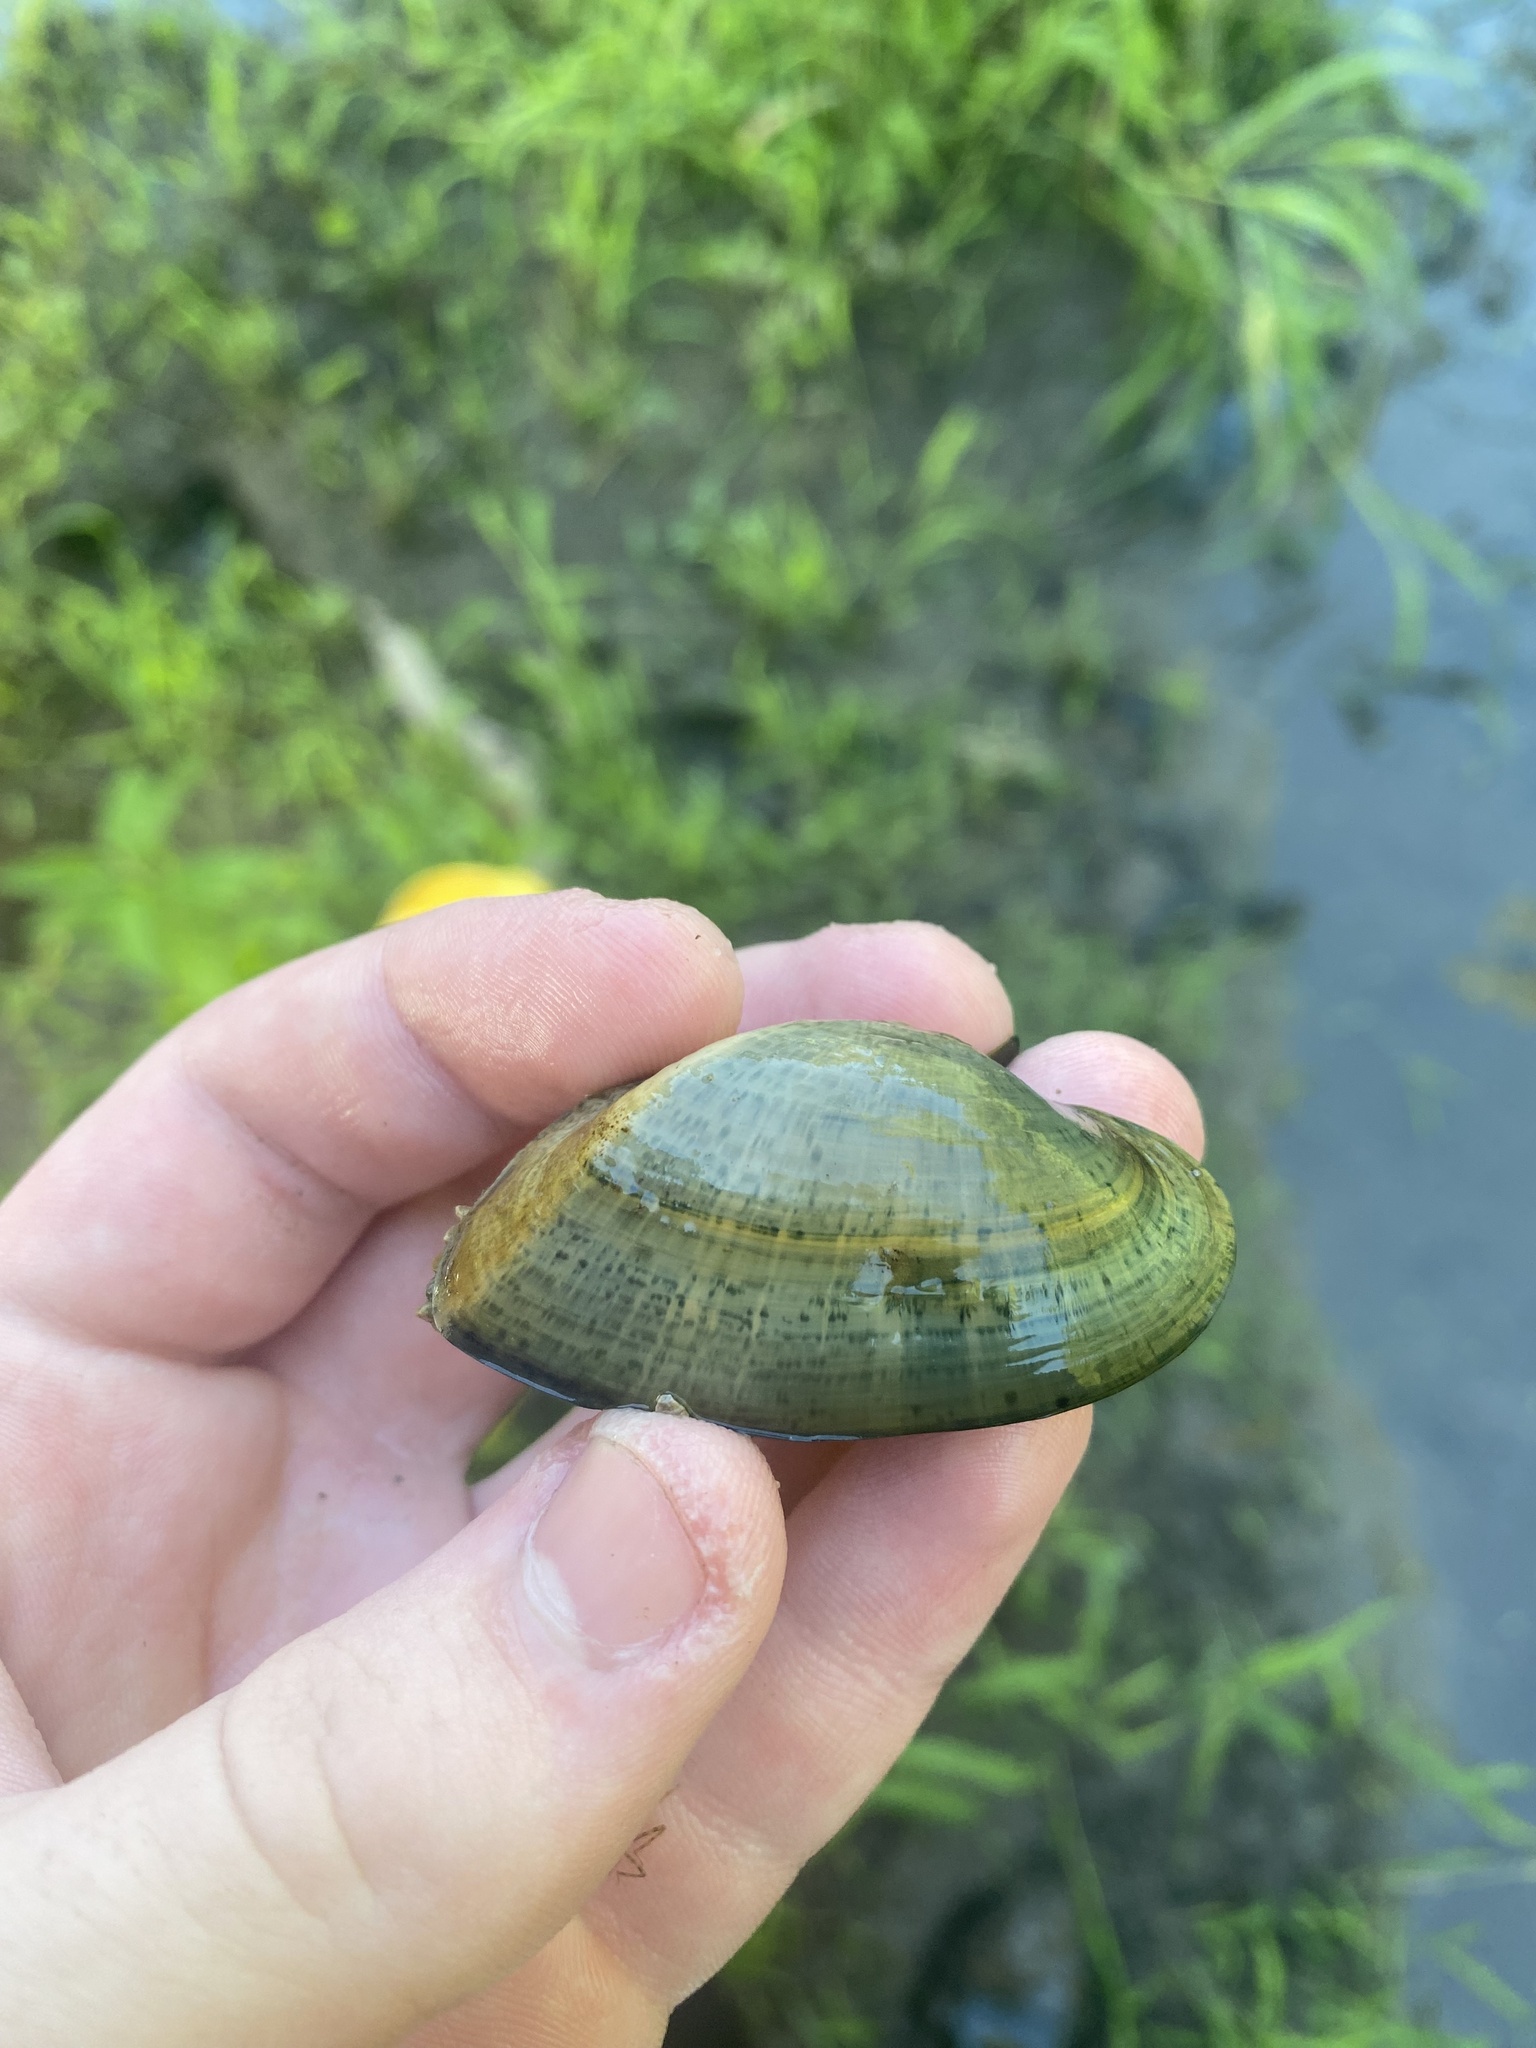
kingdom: Animalia
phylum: Mollusca
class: Bivalvia
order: Unionida
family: Unionidae
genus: Alasmidonta
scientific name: Alasmidonta marginata
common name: Elktoe
